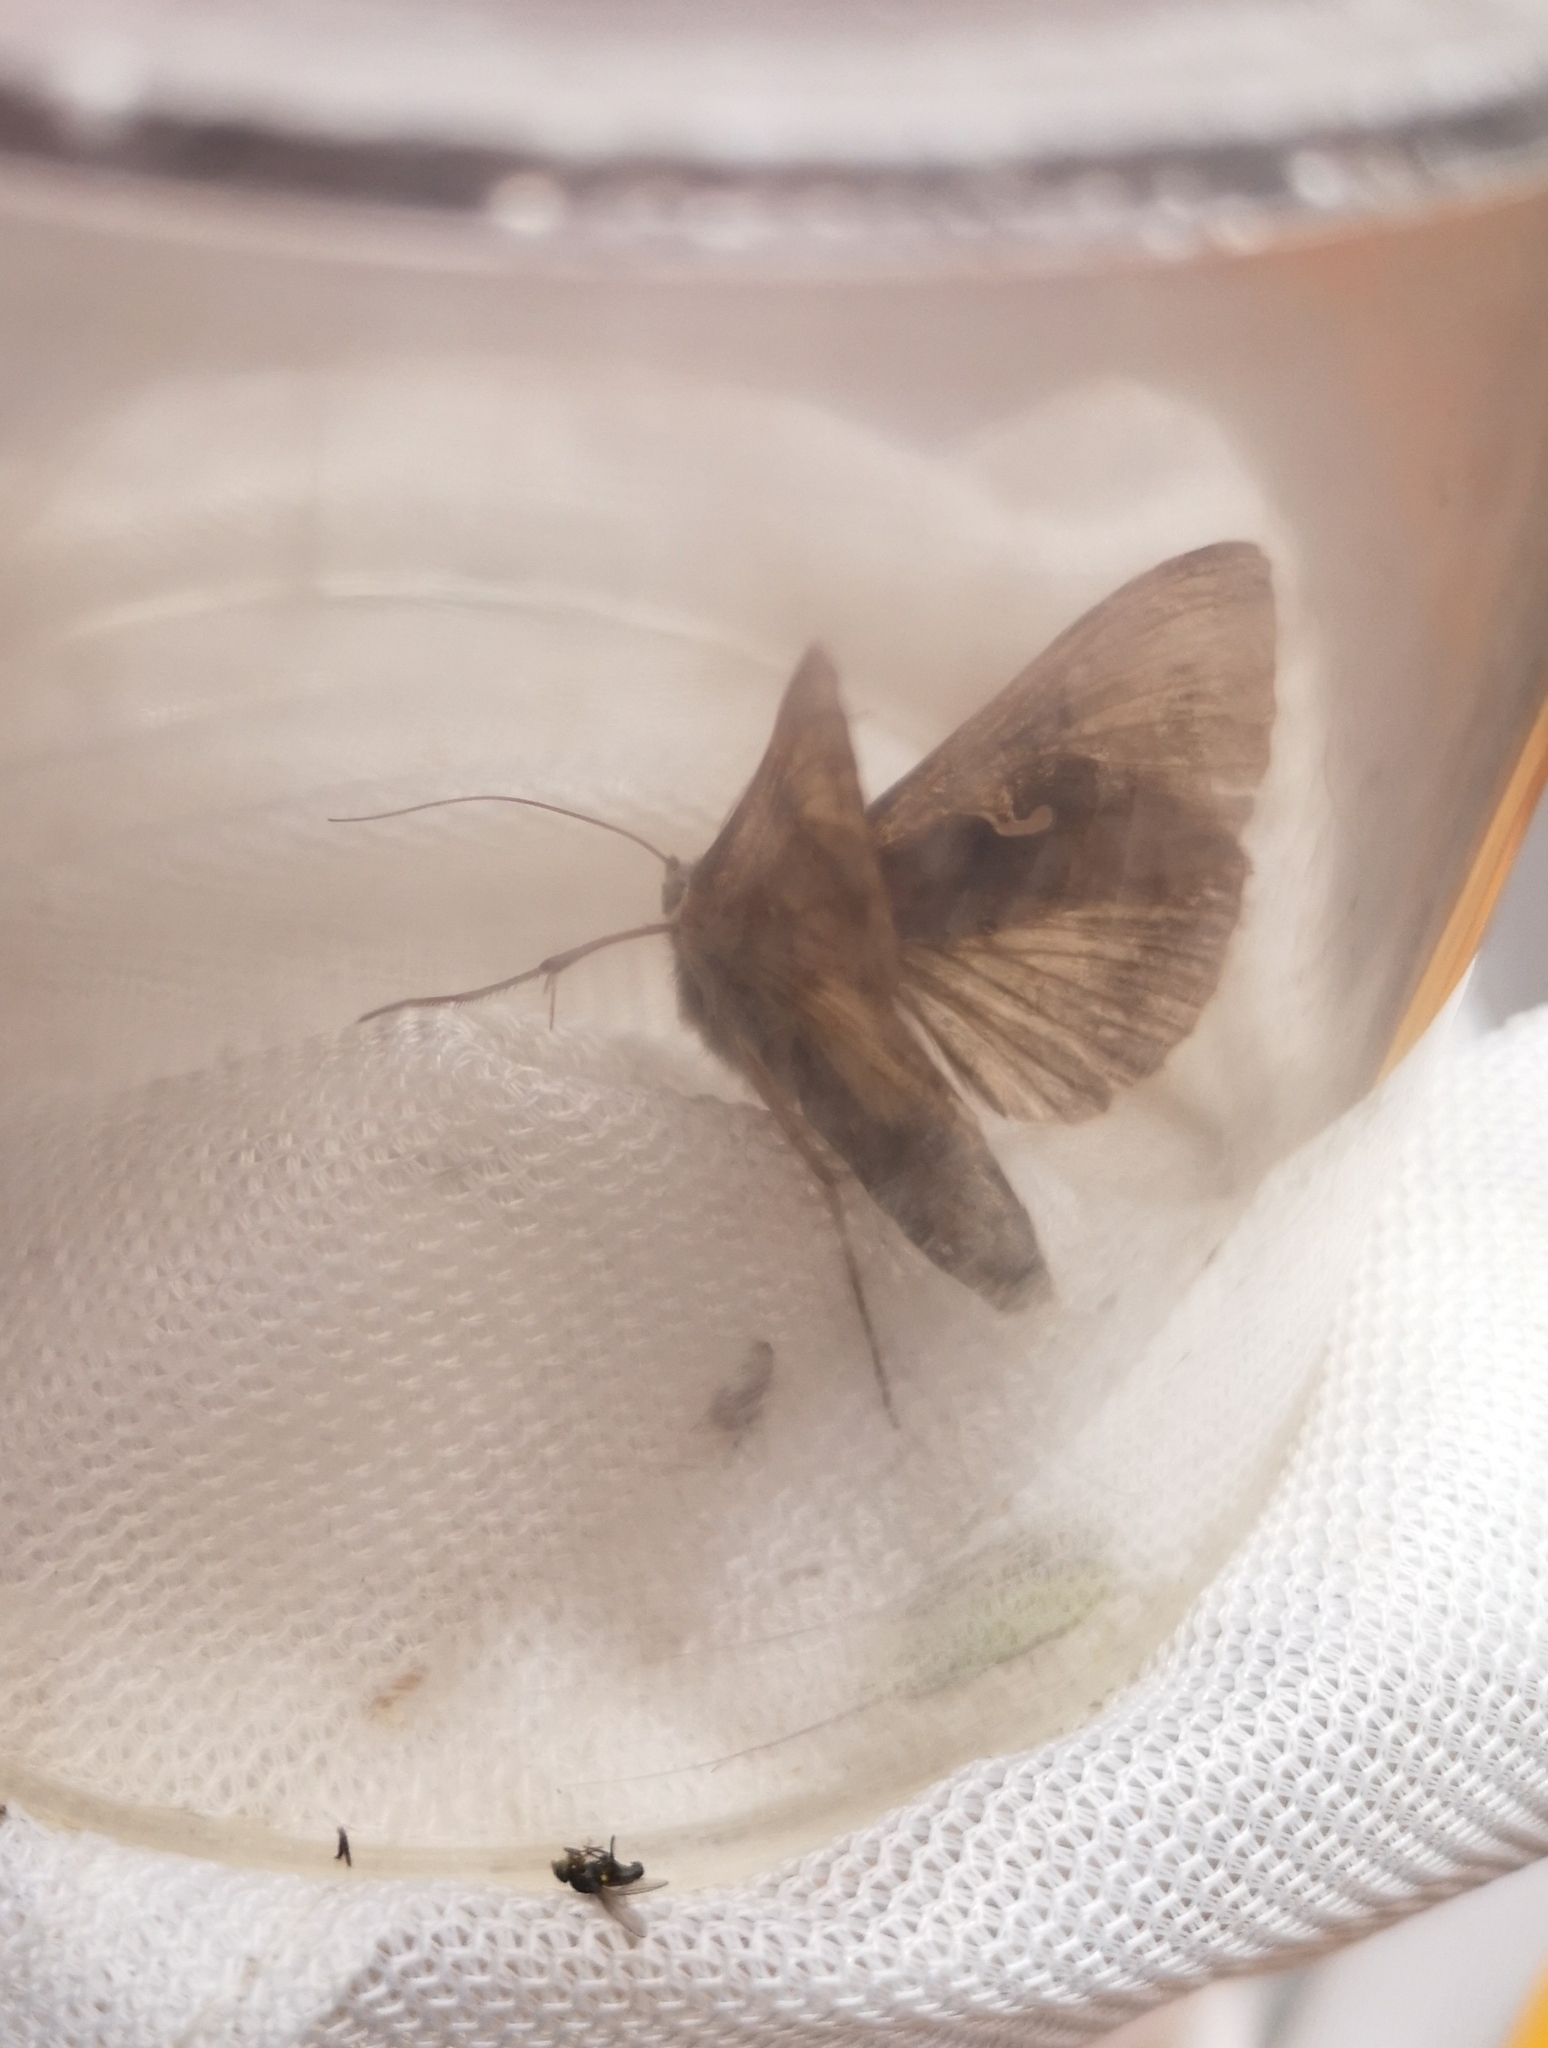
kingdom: Animalia
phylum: Arthropoda
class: Insecta
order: Lepidoptera
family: Noctuidae
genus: Autographa
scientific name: Autographa gamma
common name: Silver y
